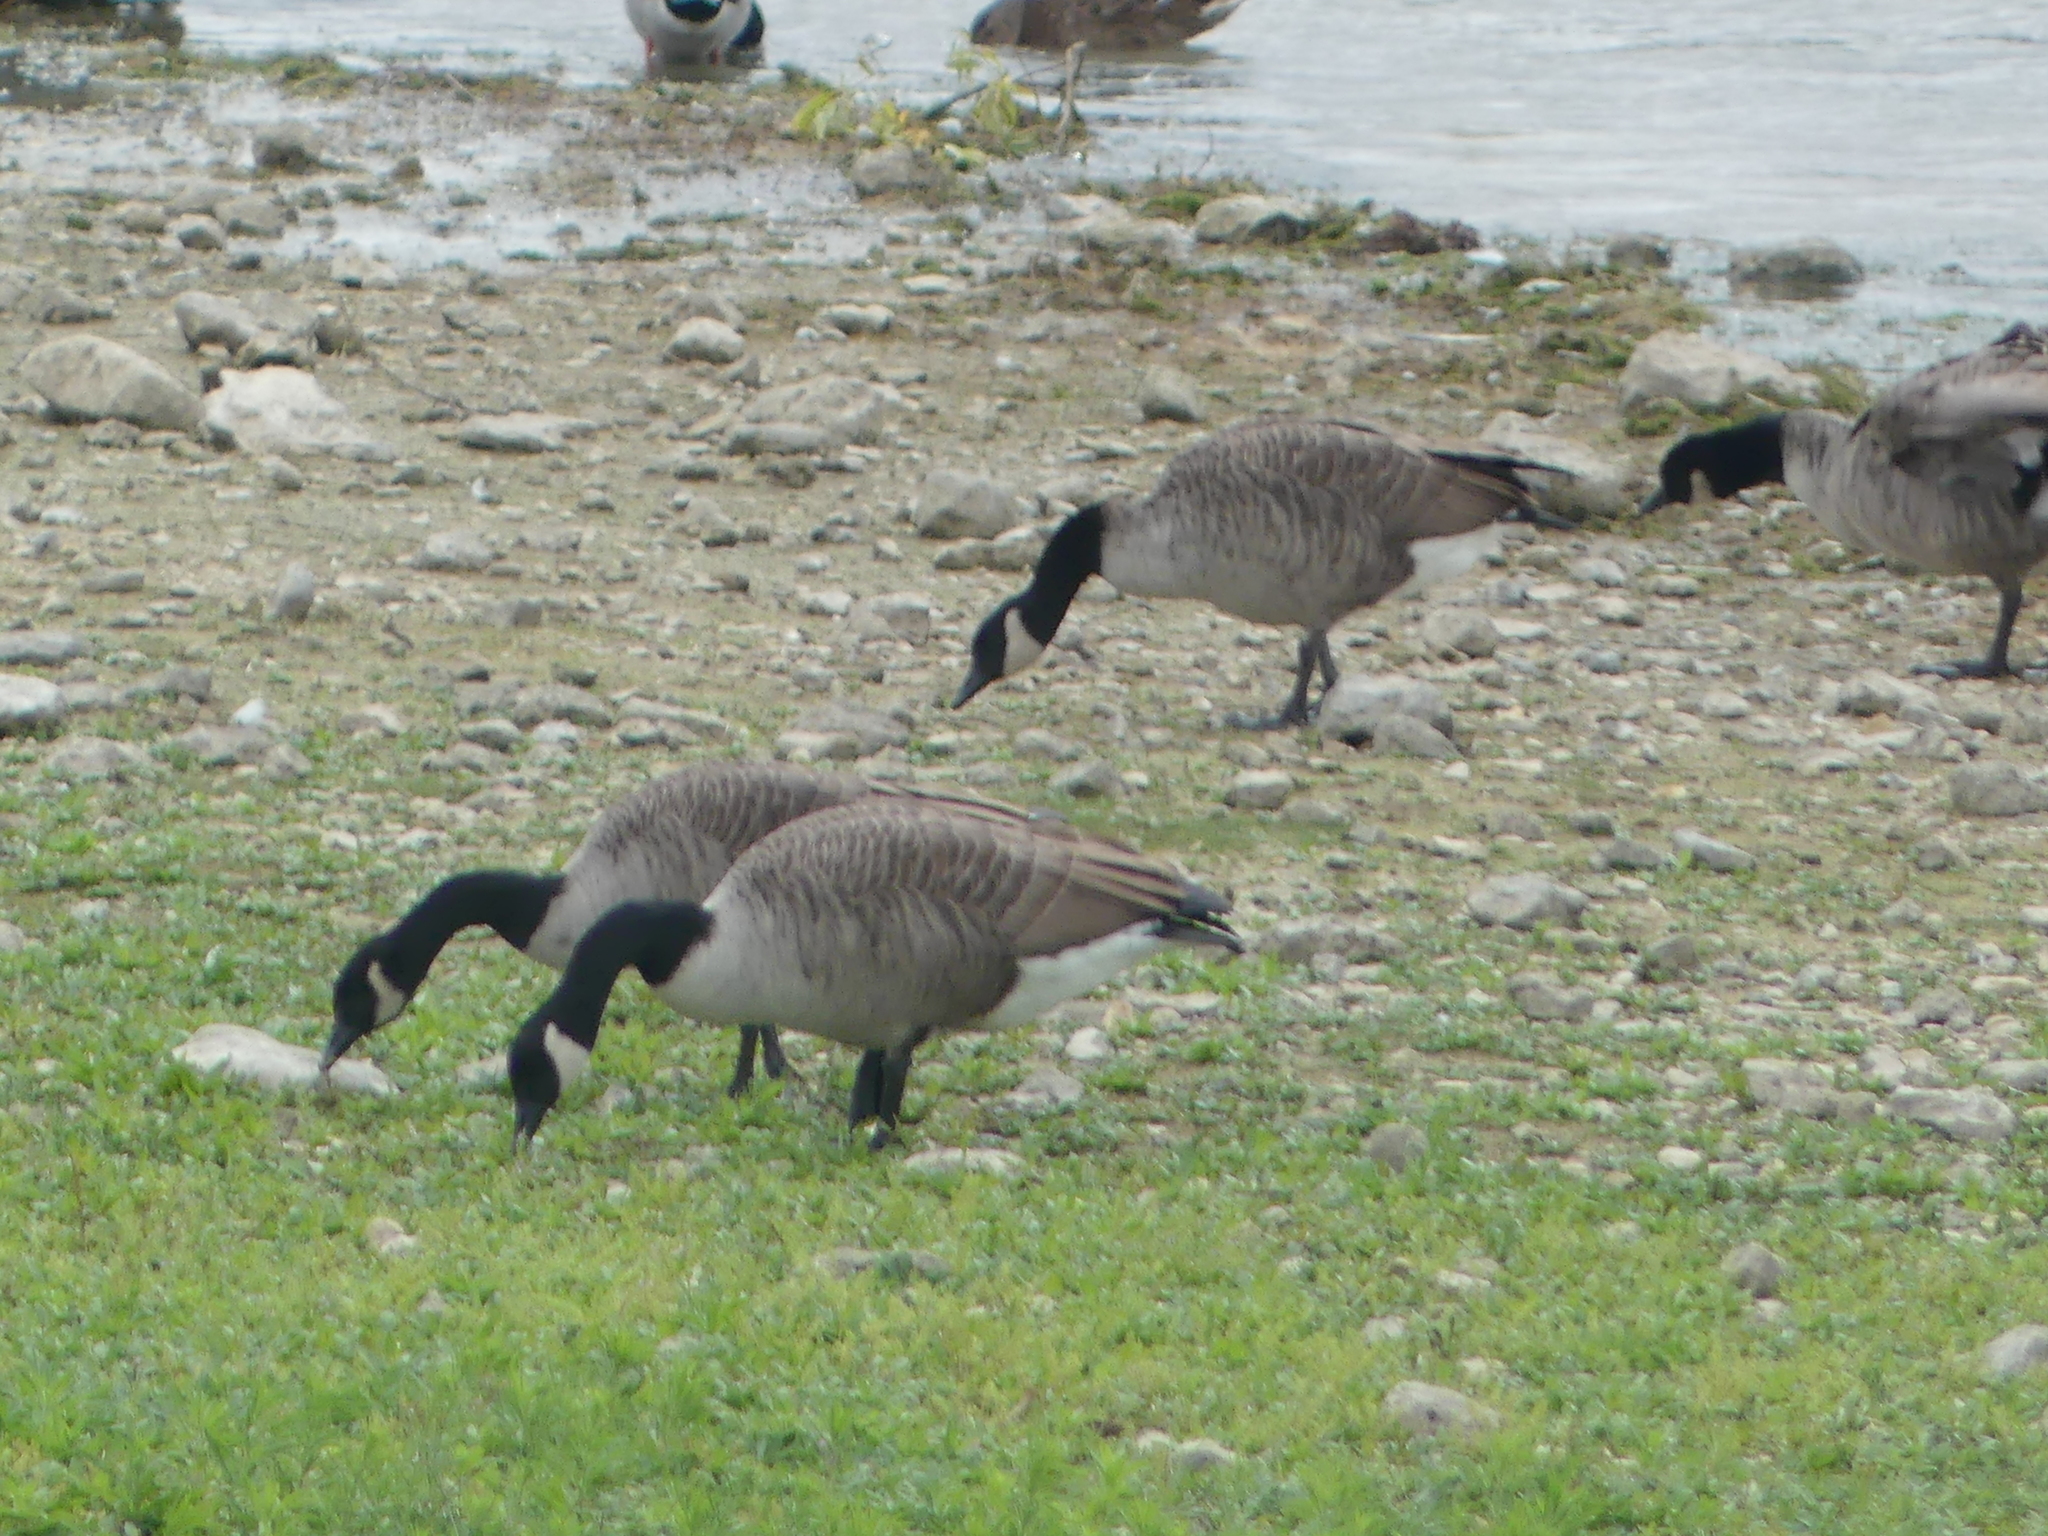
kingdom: Animalia
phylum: Chordata
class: Aves
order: Anseriformes
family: Anatidae
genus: Branta
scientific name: Branta canadensis
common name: Canada goose
